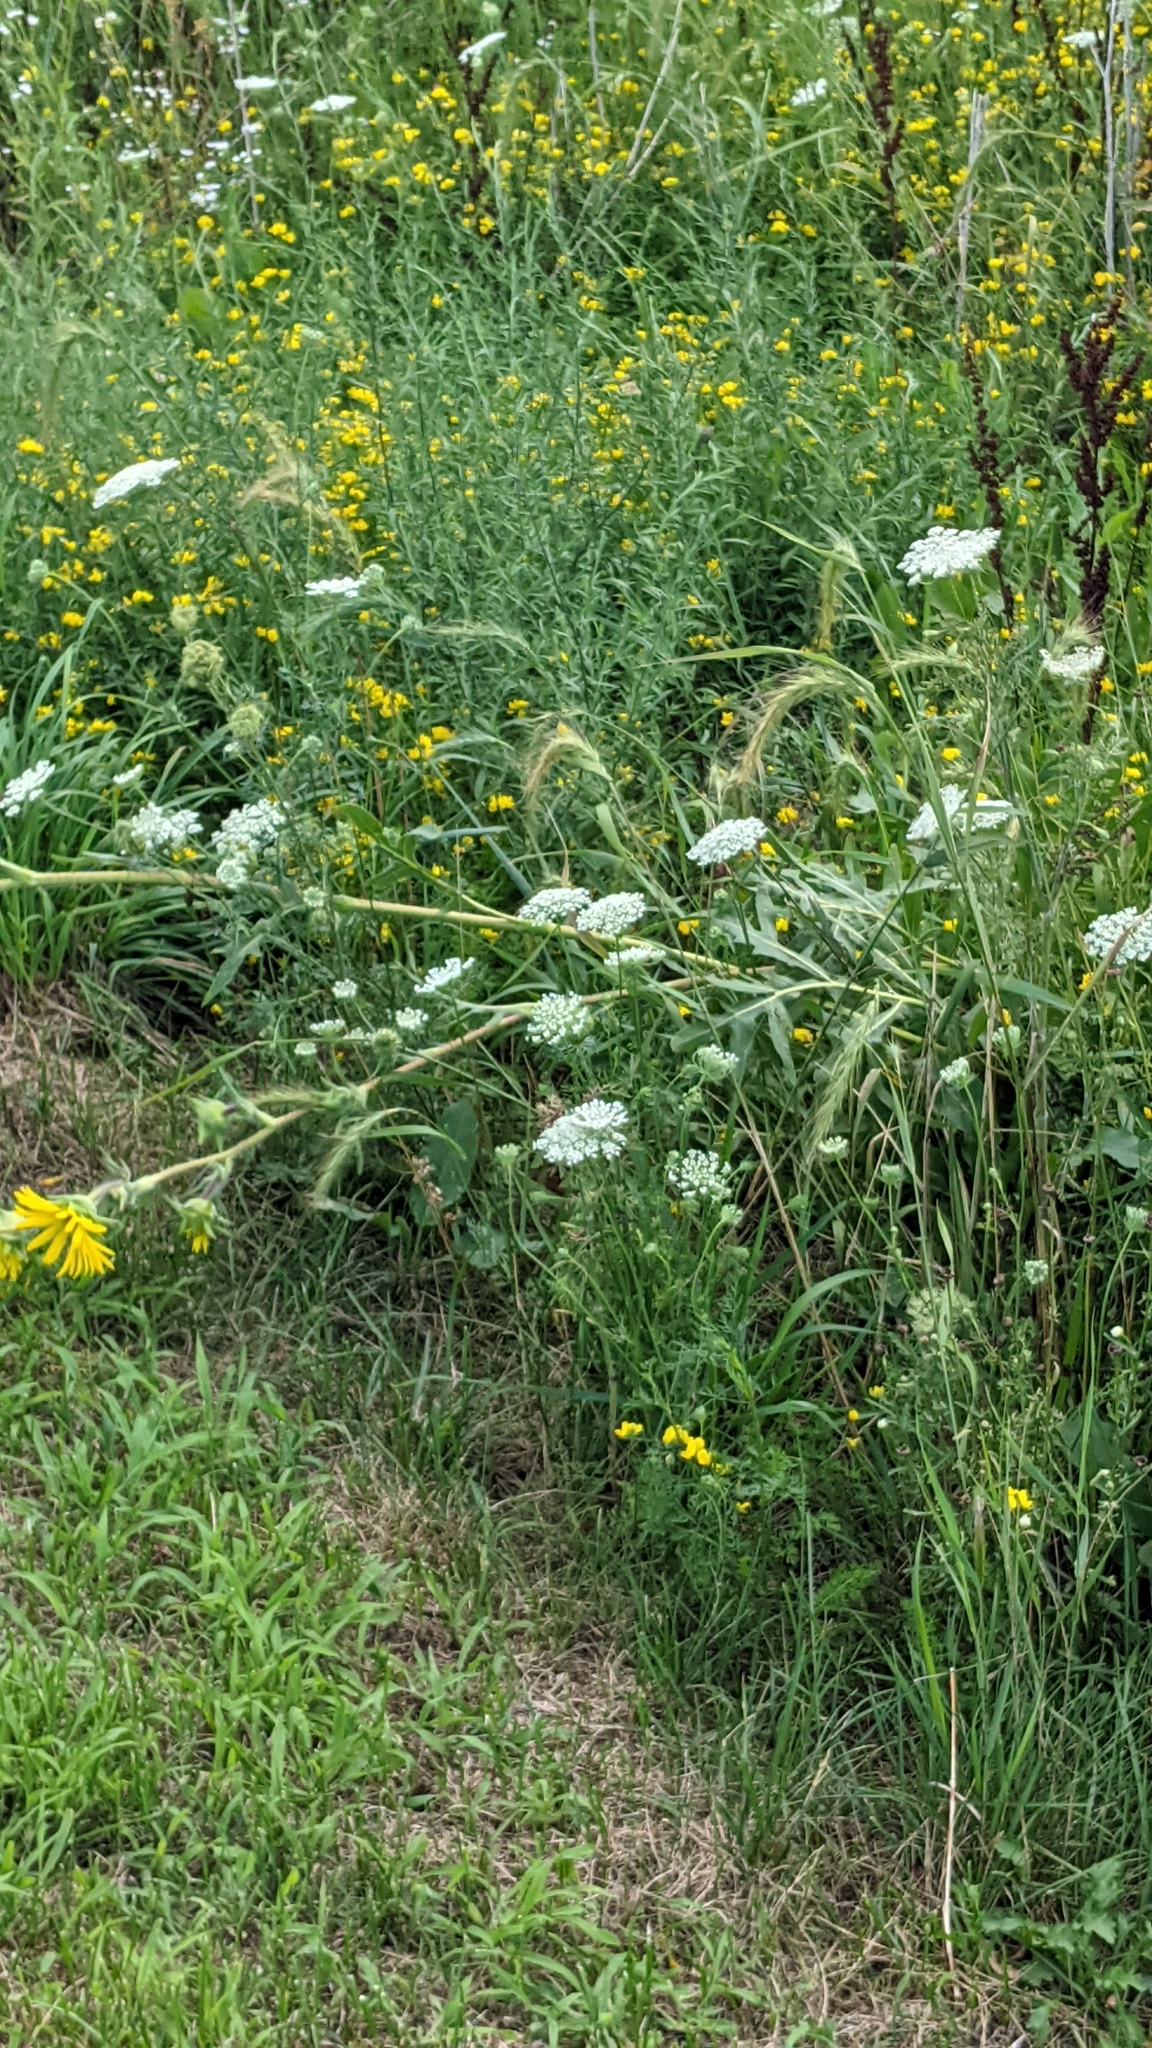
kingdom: Plantae
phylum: Tracheophyta
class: Magnoliopsida
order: Apiales
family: Apiaceae
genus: Daucus
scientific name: Daucus carota
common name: Wild carrot
